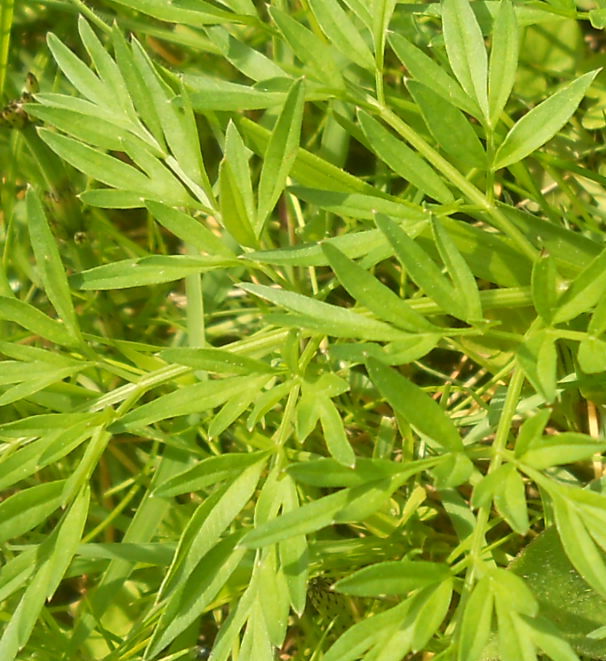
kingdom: Plantae
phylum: Tracheophyta
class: Magnoliopsida
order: Apiales
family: Apiaceae
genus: Silaum
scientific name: Silaum silaus
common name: Pepper-saxifrage
